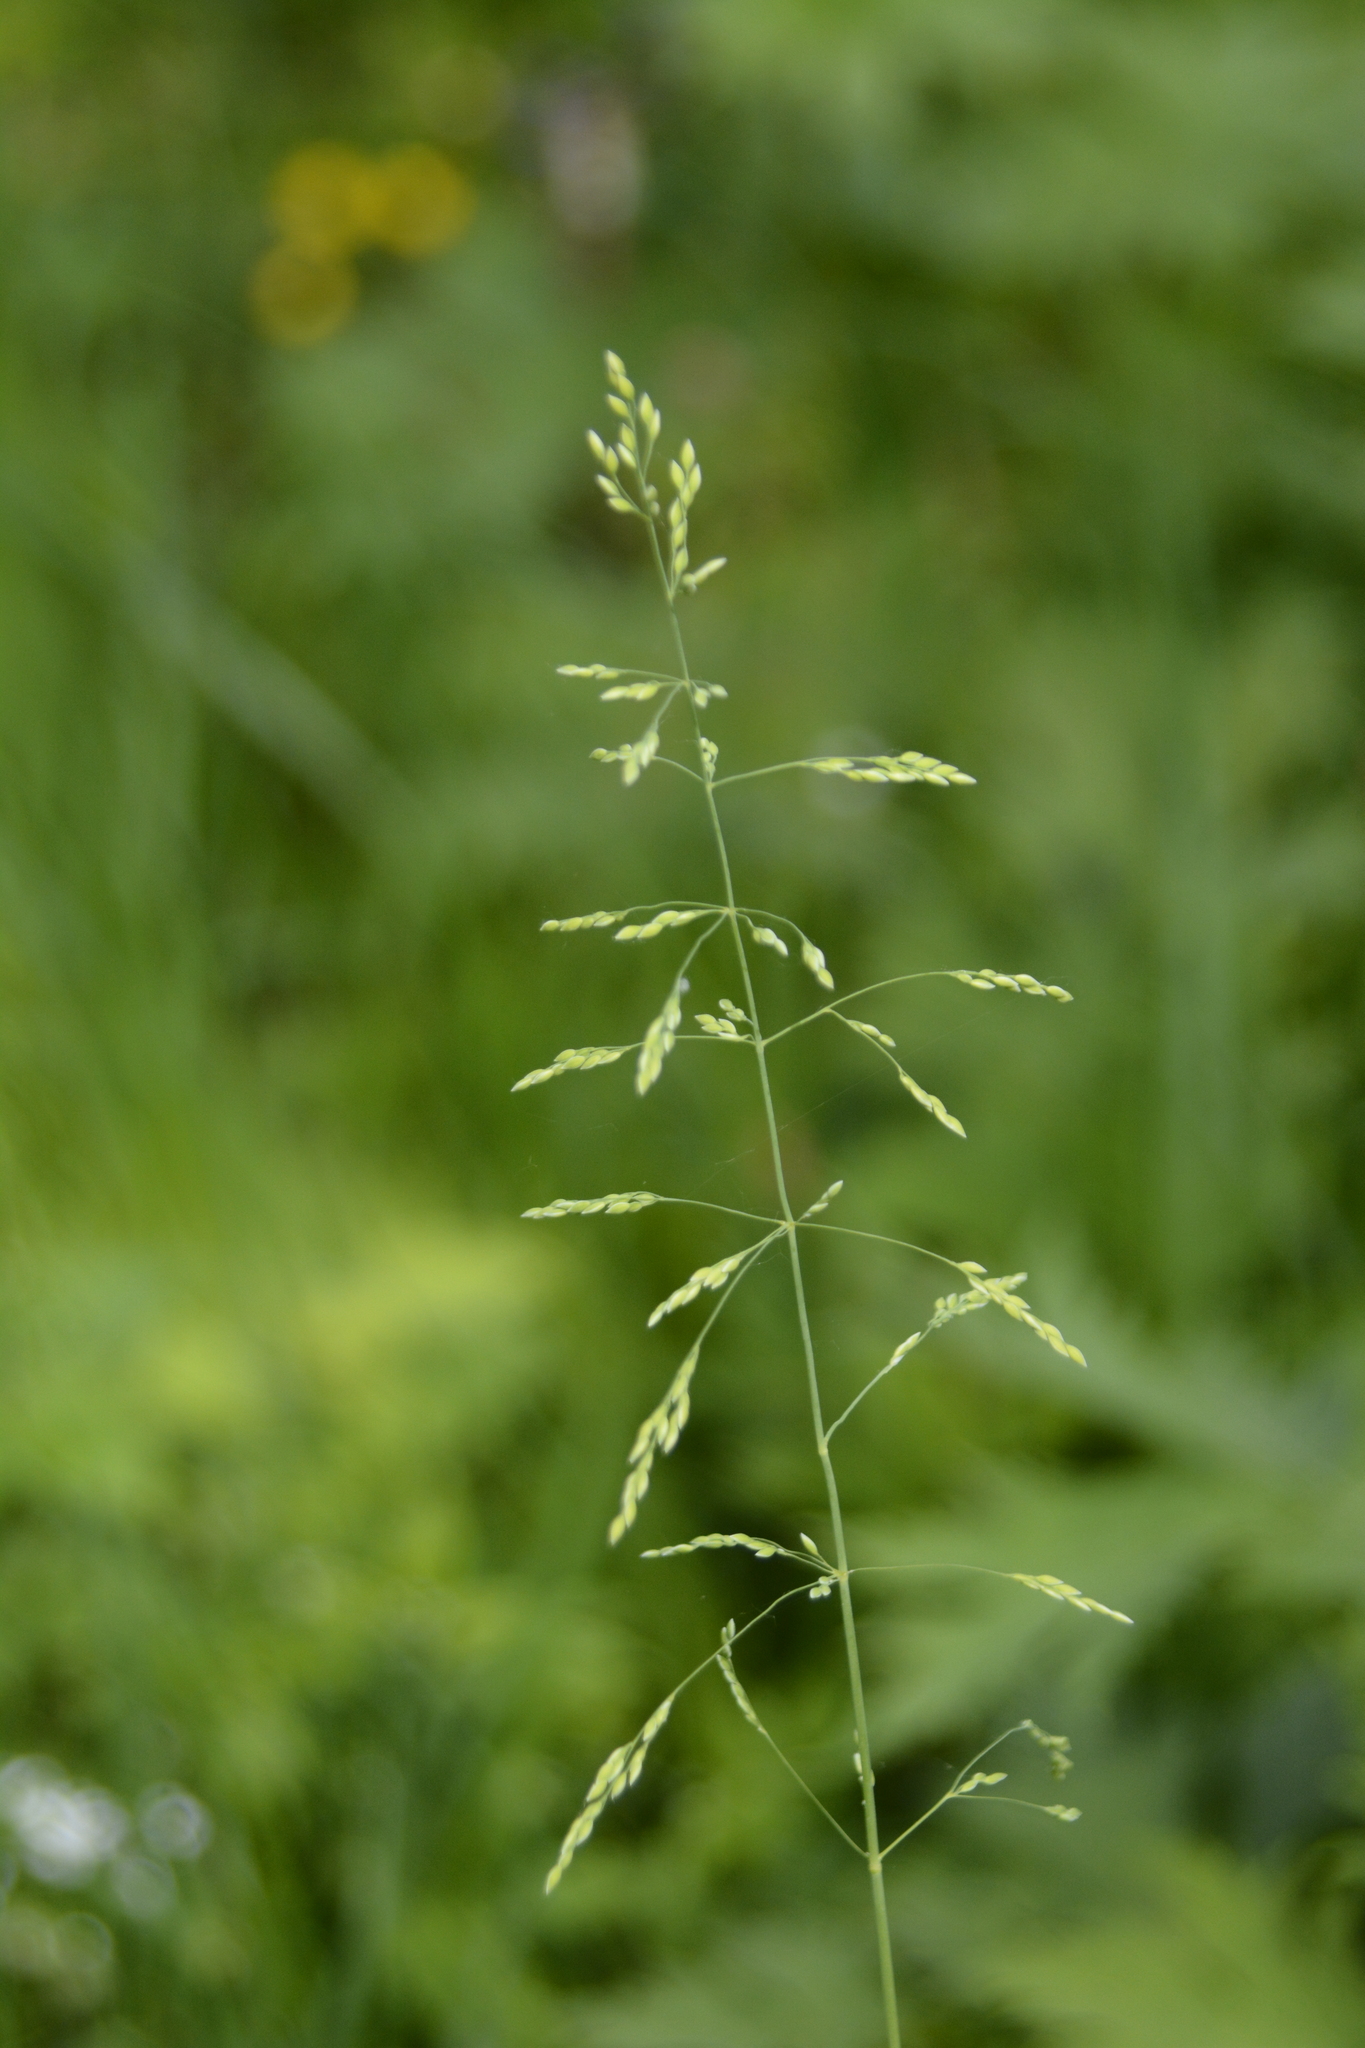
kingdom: Plantae
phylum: Tracheophyta
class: Liliopsida
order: Poales
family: Poaceae
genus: Milium
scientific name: Milium effusum
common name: Wood millet
